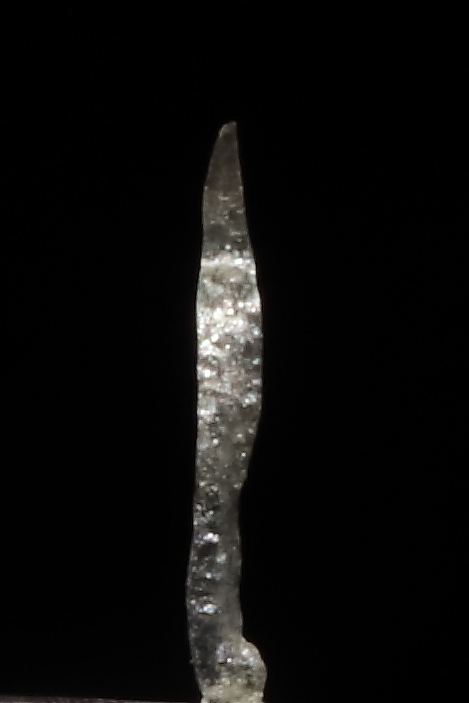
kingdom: Plantae
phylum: Tracheophyta
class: Magnoliopsida
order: Malpighiales
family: Violaceae
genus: Viola
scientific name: Viola membranacea
